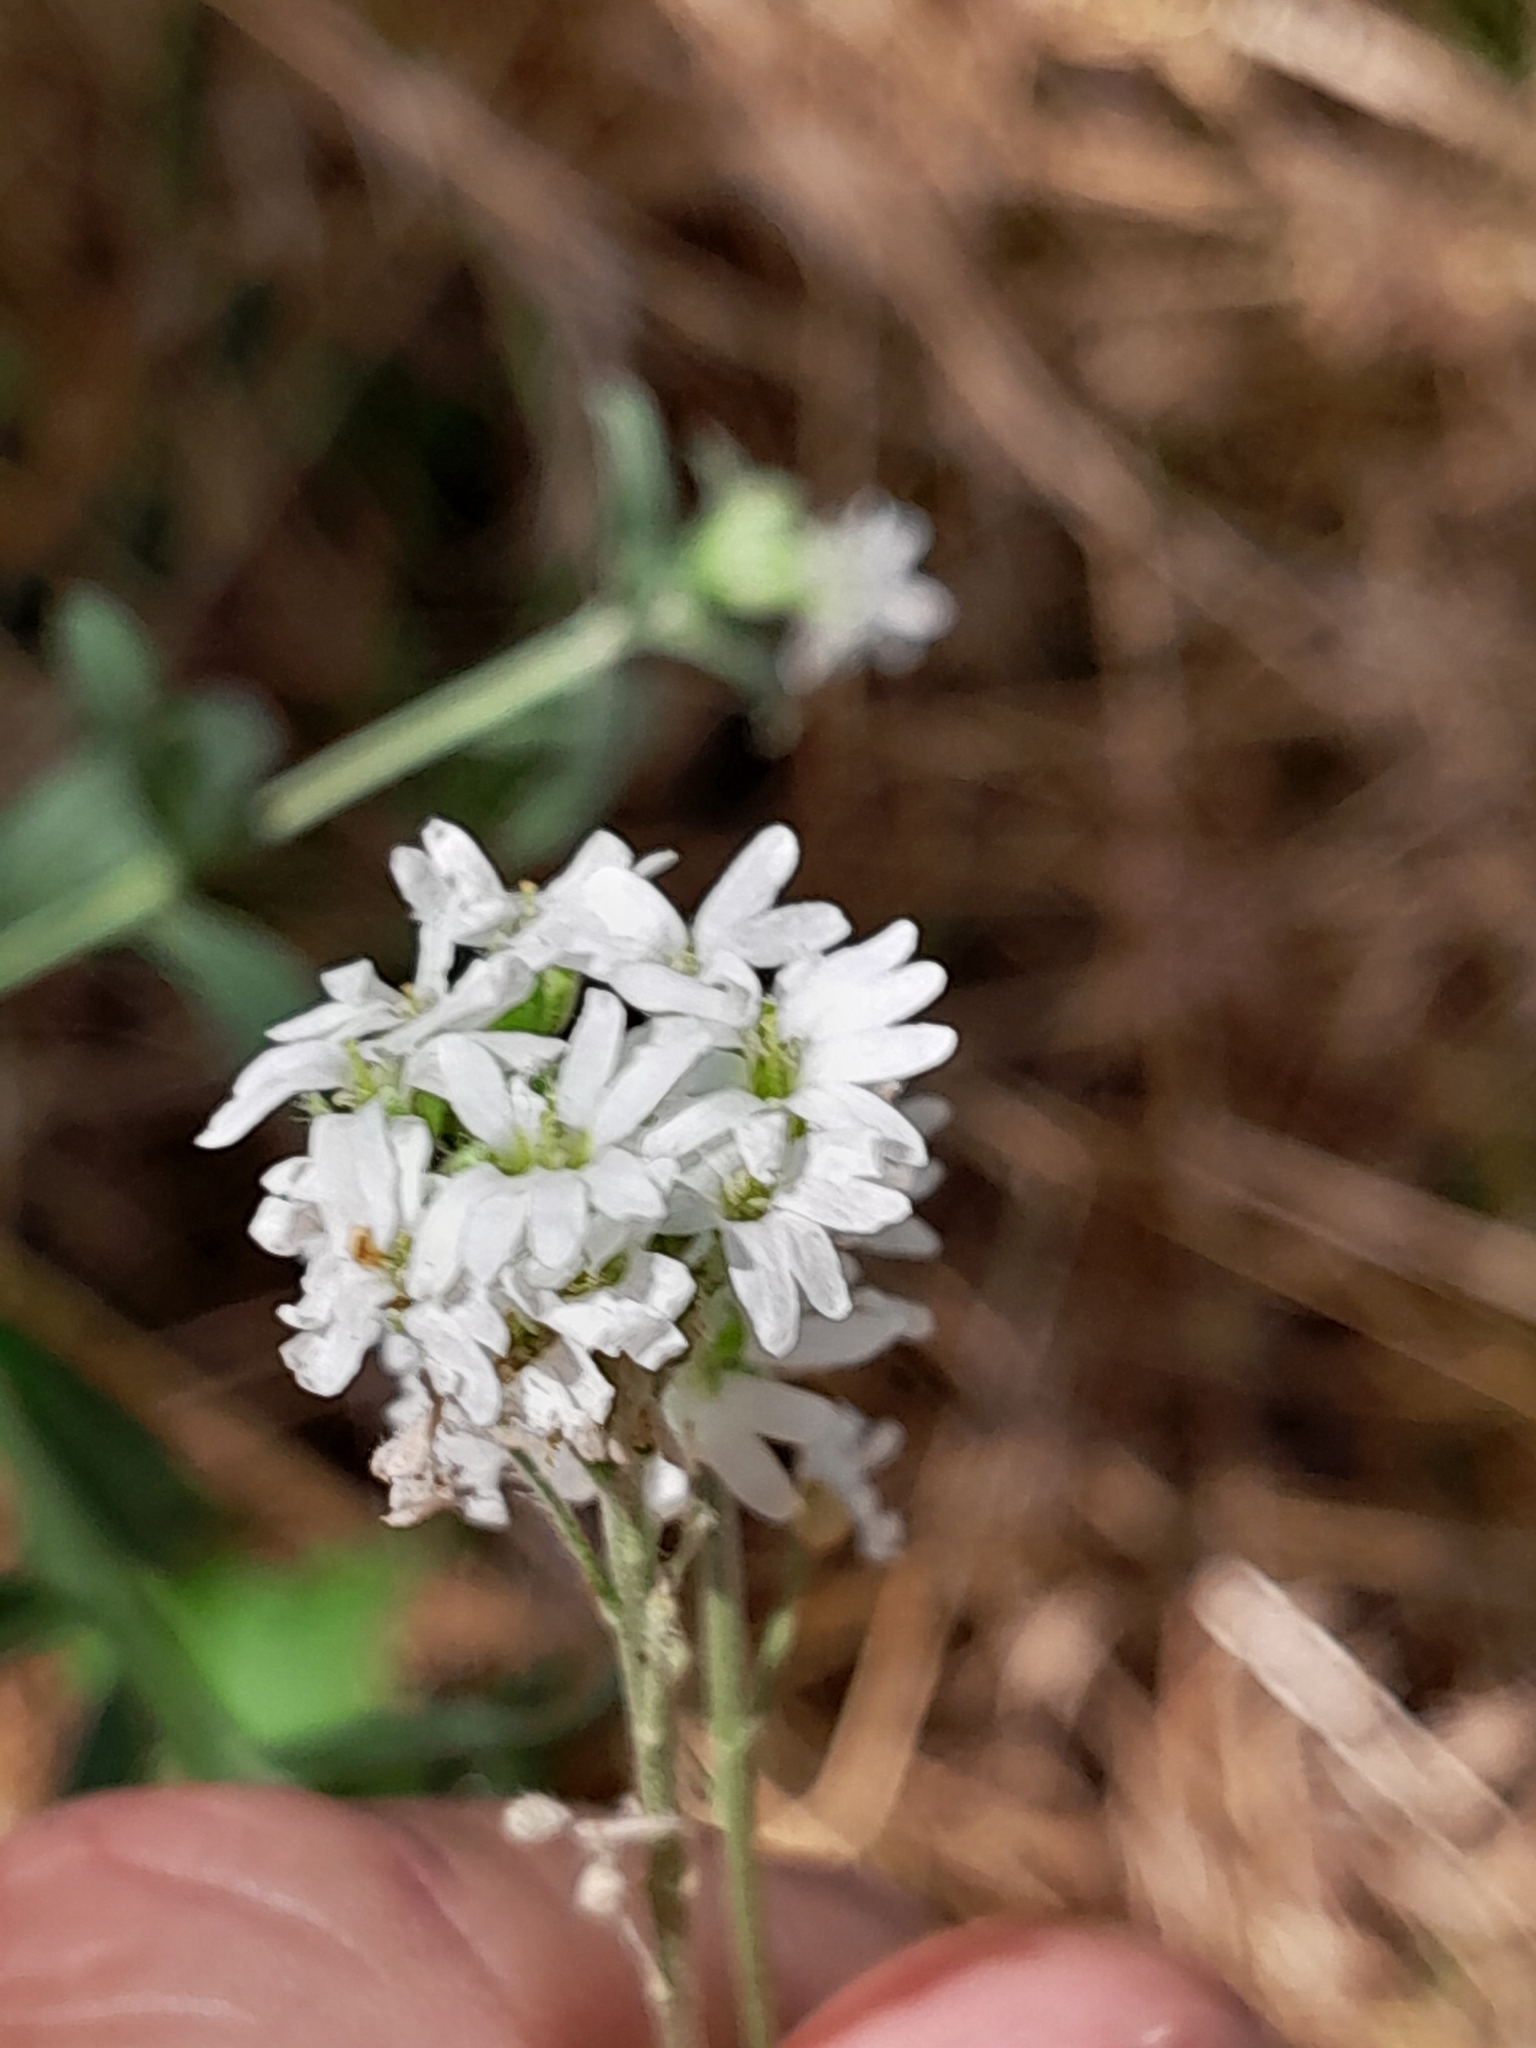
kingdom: Plantae
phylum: Tracheophyta
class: Magnoliopsida
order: Brassicales
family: Brassicaceae
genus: Berteroa
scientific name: Berteroa incana
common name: Hoary alison
